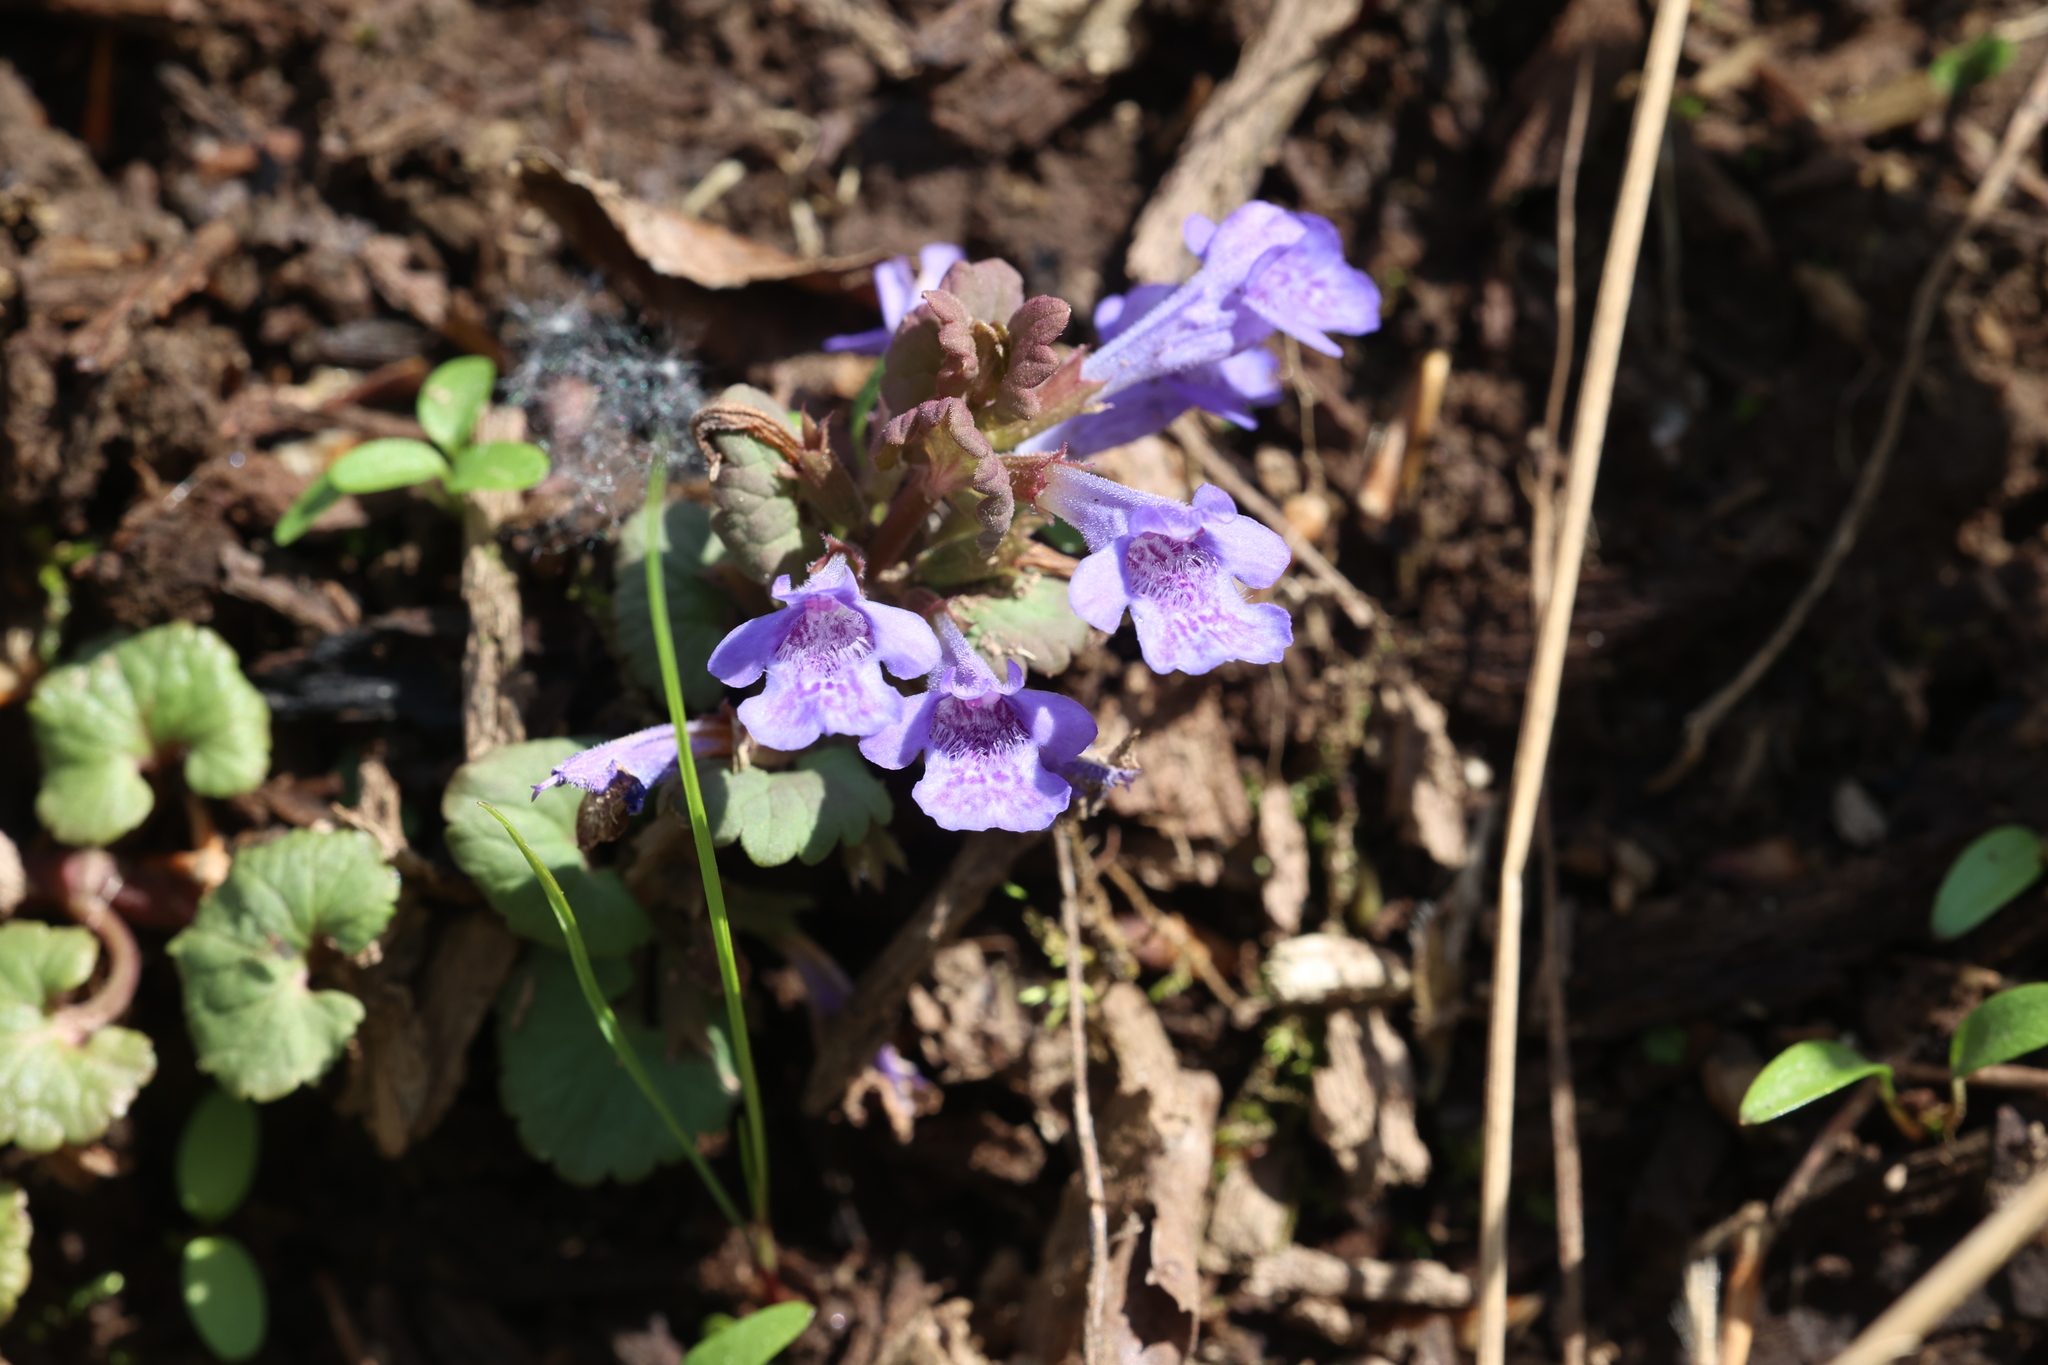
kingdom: Plantae
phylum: Tracheophyta
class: Magnoliopsida
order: Lamiales
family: Lamiaceae
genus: Glechoma
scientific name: Glechoma hederacea
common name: Ground ivy
